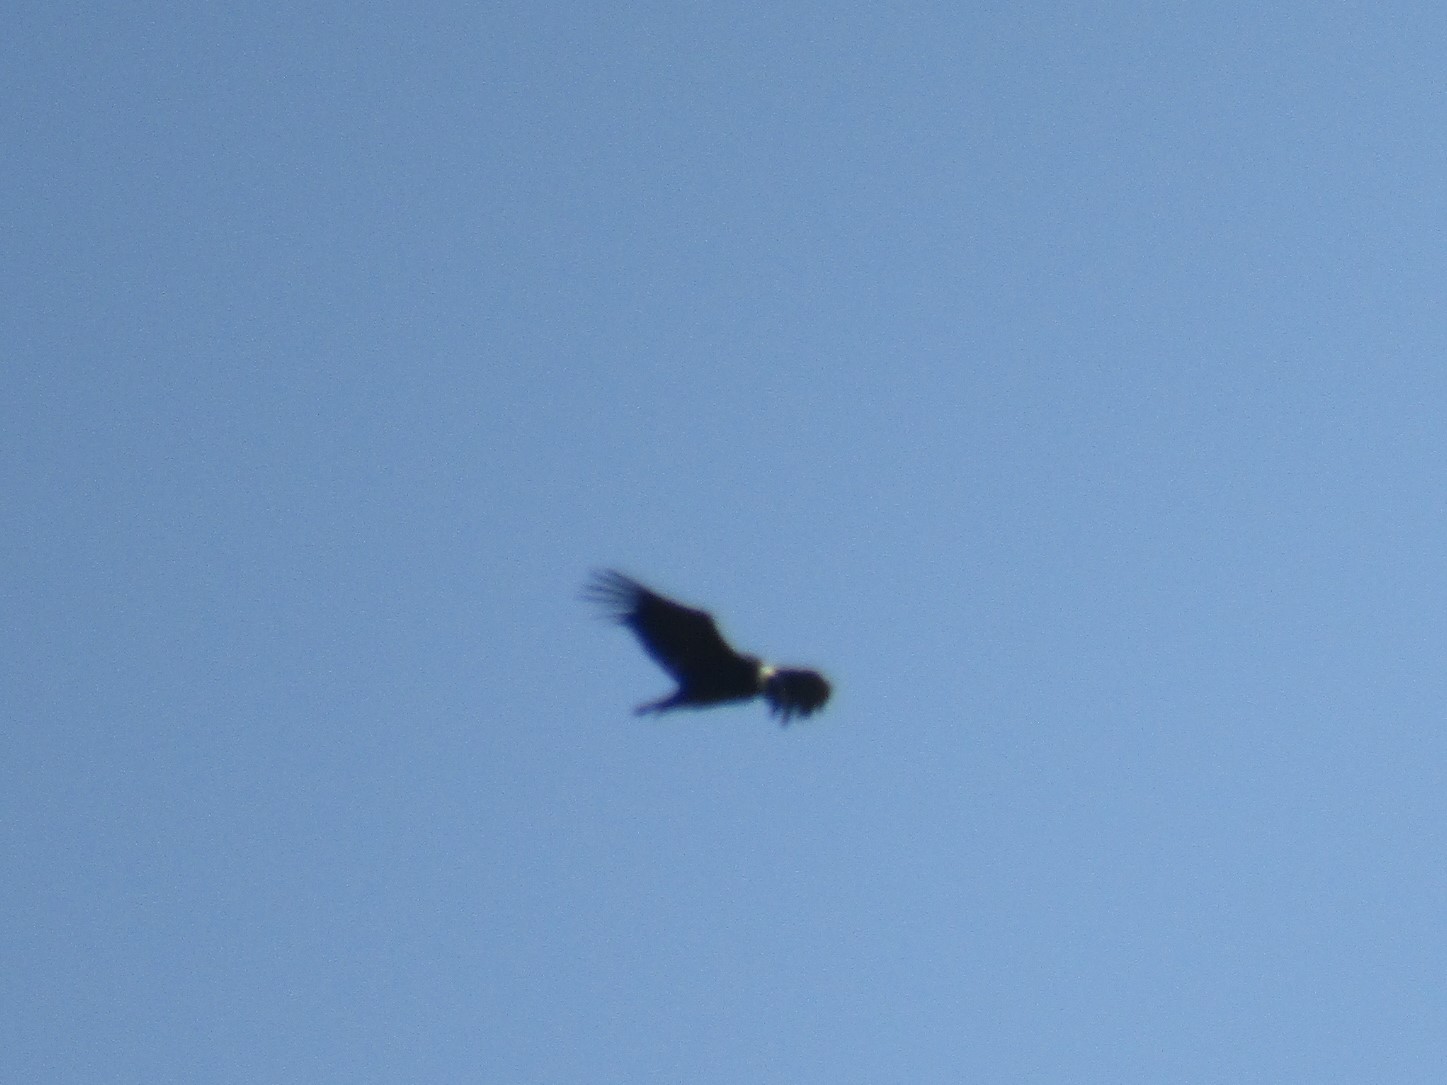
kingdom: Animalia
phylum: Chordata
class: Aves
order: Accipitriformes
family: Cathartidae
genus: Vultur
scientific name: Vultur gryphus
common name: Andean condor
